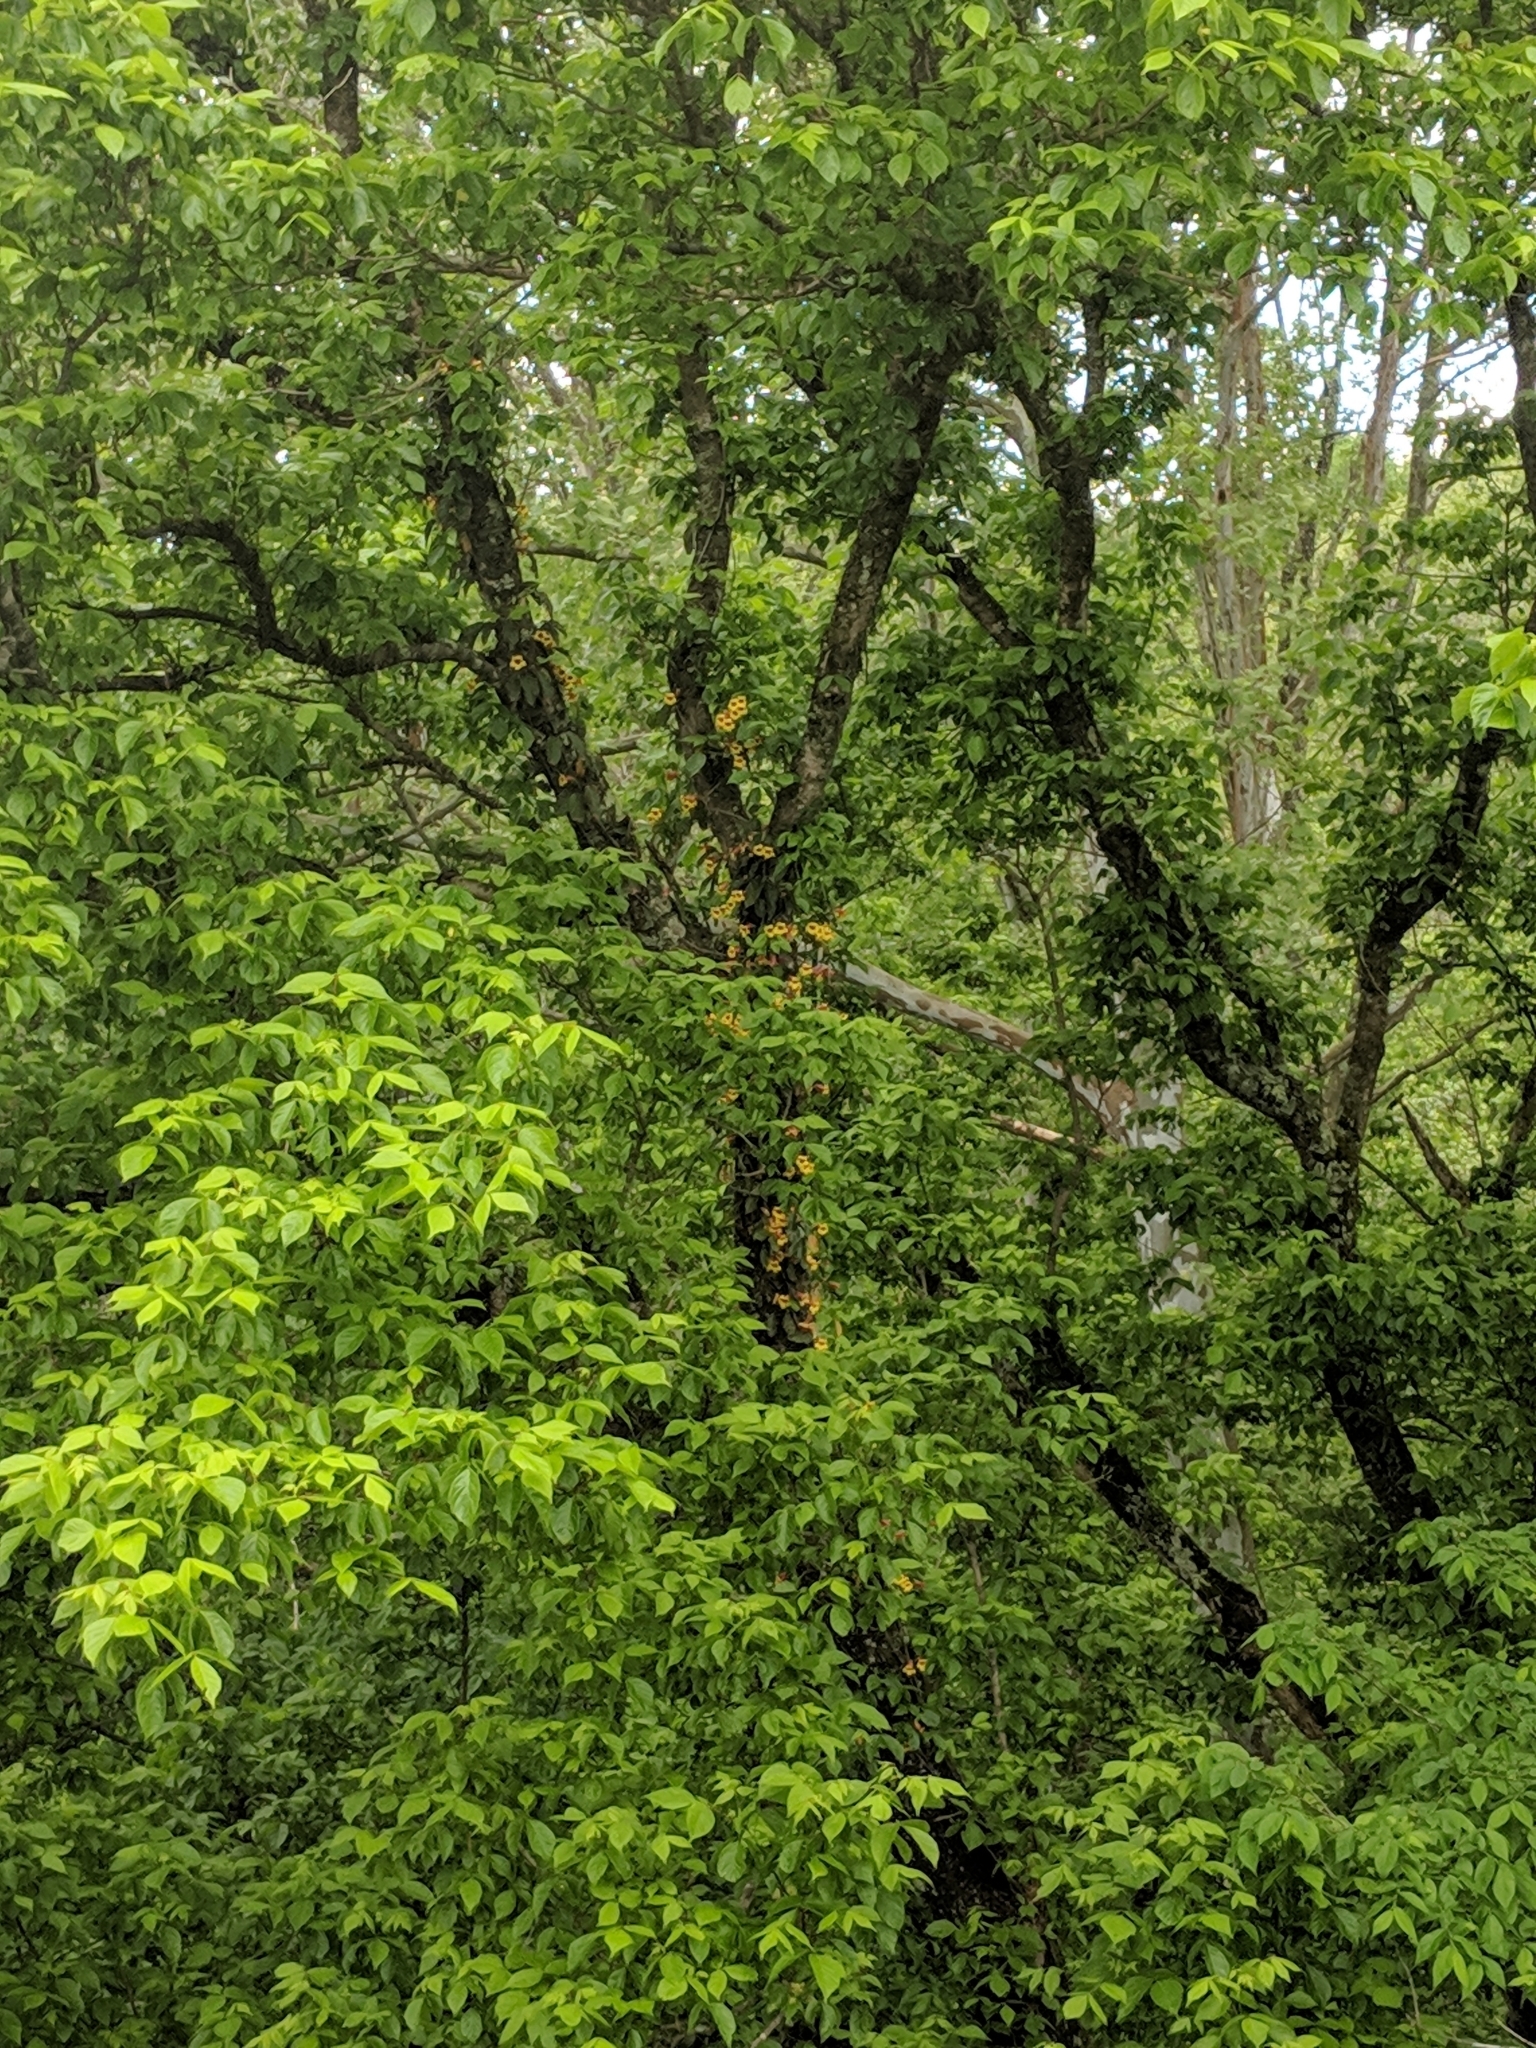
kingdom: Plantae
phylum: Tracheophyta
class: Magnoliopsida
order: Lamiales
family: Bignoniaceae
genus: Bignonia
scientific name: Bignonia capreolata
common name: Crossvine
